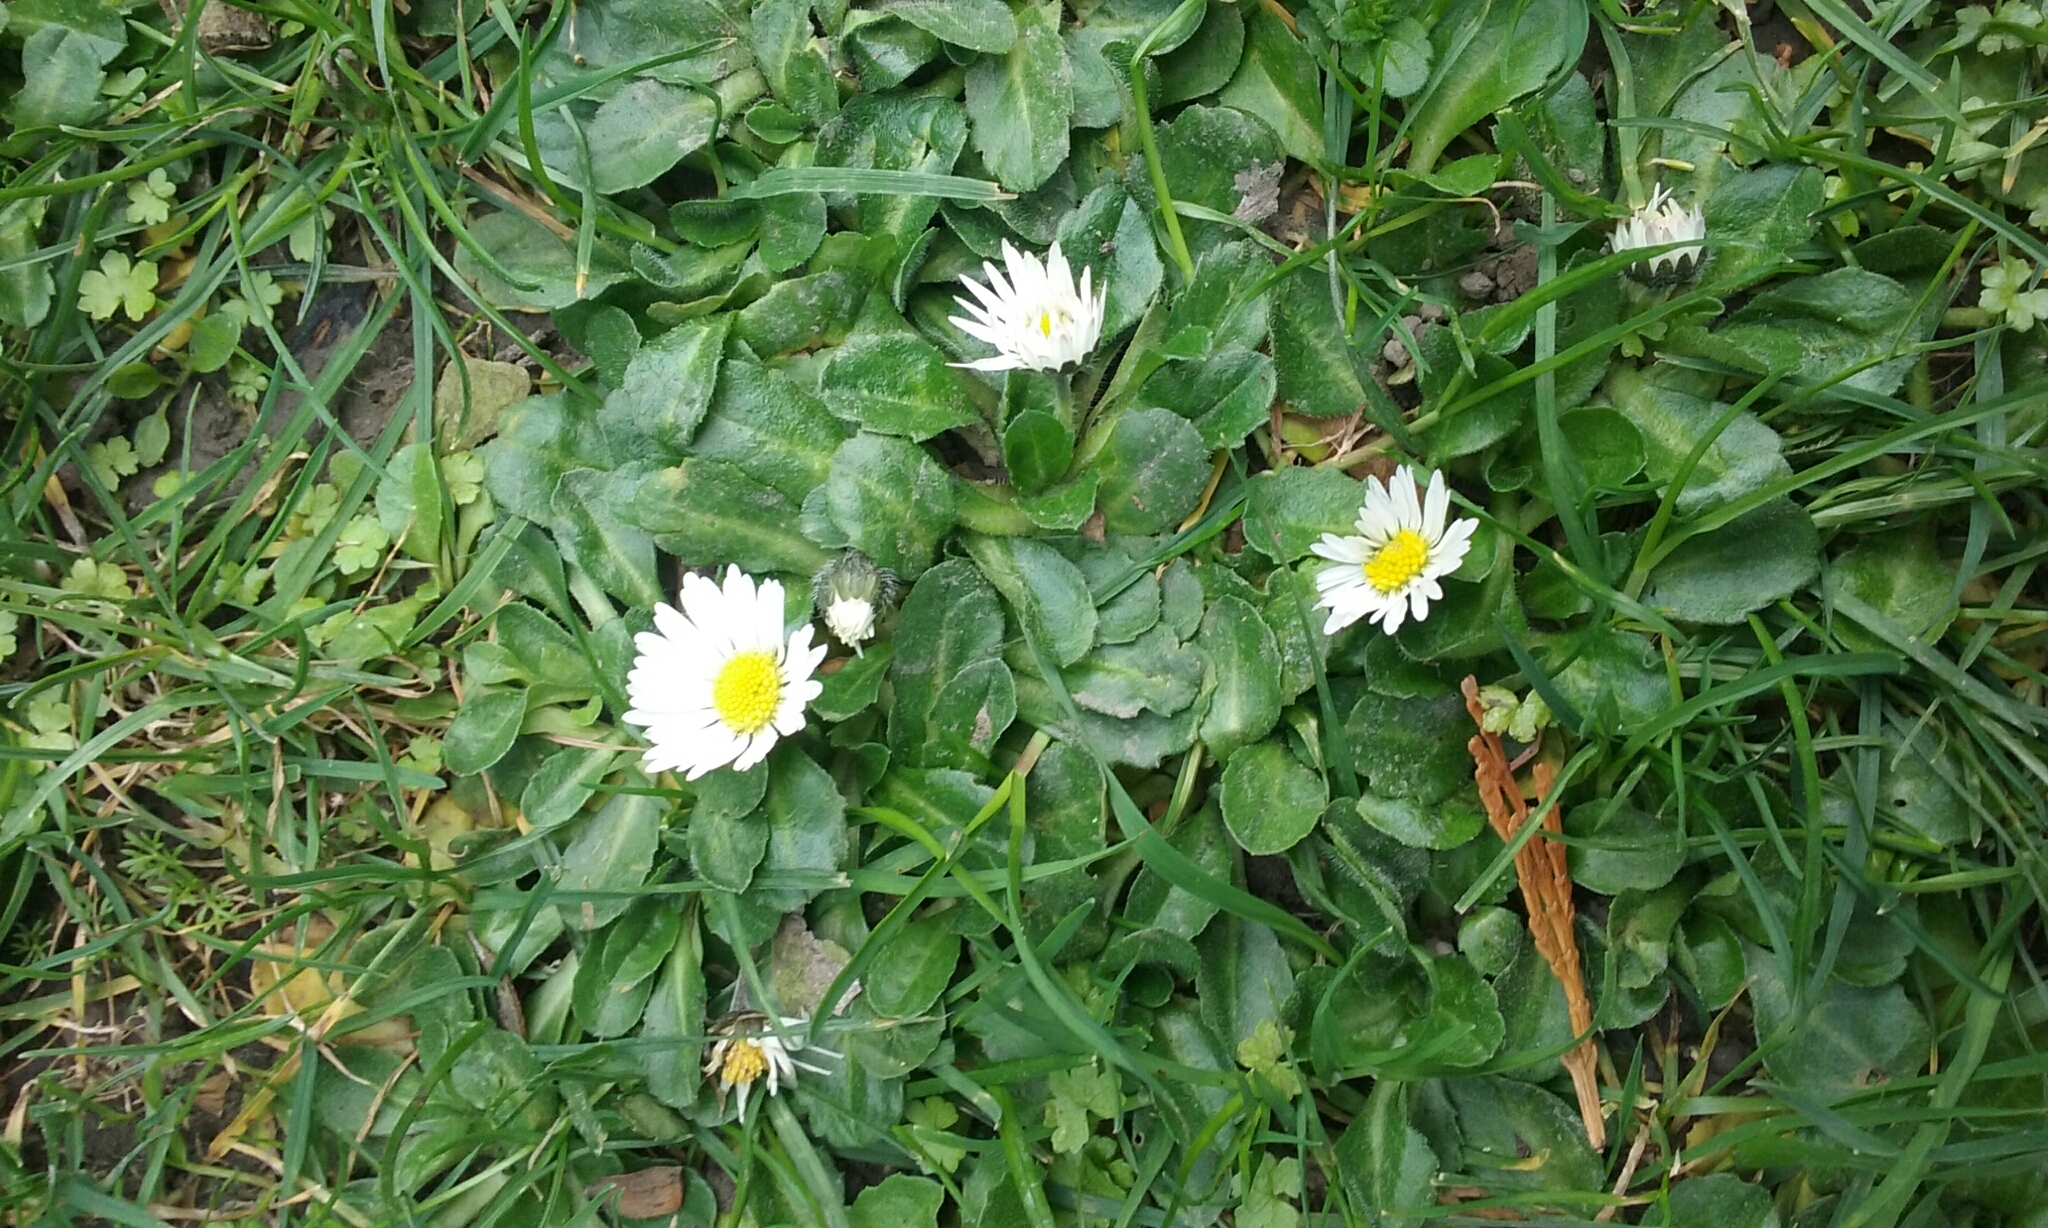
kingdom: Plantae
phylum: Tracheophyta
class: Magnoliopsida
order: Asterales
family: Asteraceae
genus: Bellis
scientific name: Bellis perennis
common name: Lawndaisy
